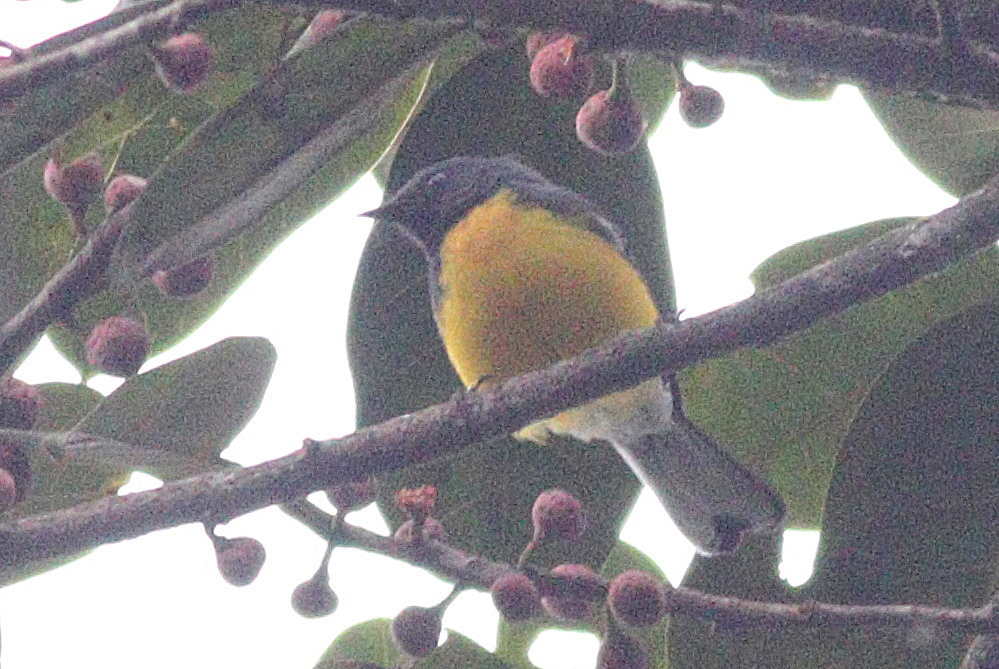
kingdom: Animalia
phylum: Chordata
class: Aves
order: Passeriformes
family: Parulidae
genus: Myioborus
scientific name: Myioborus miniatus
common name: Slate-throated redstart
